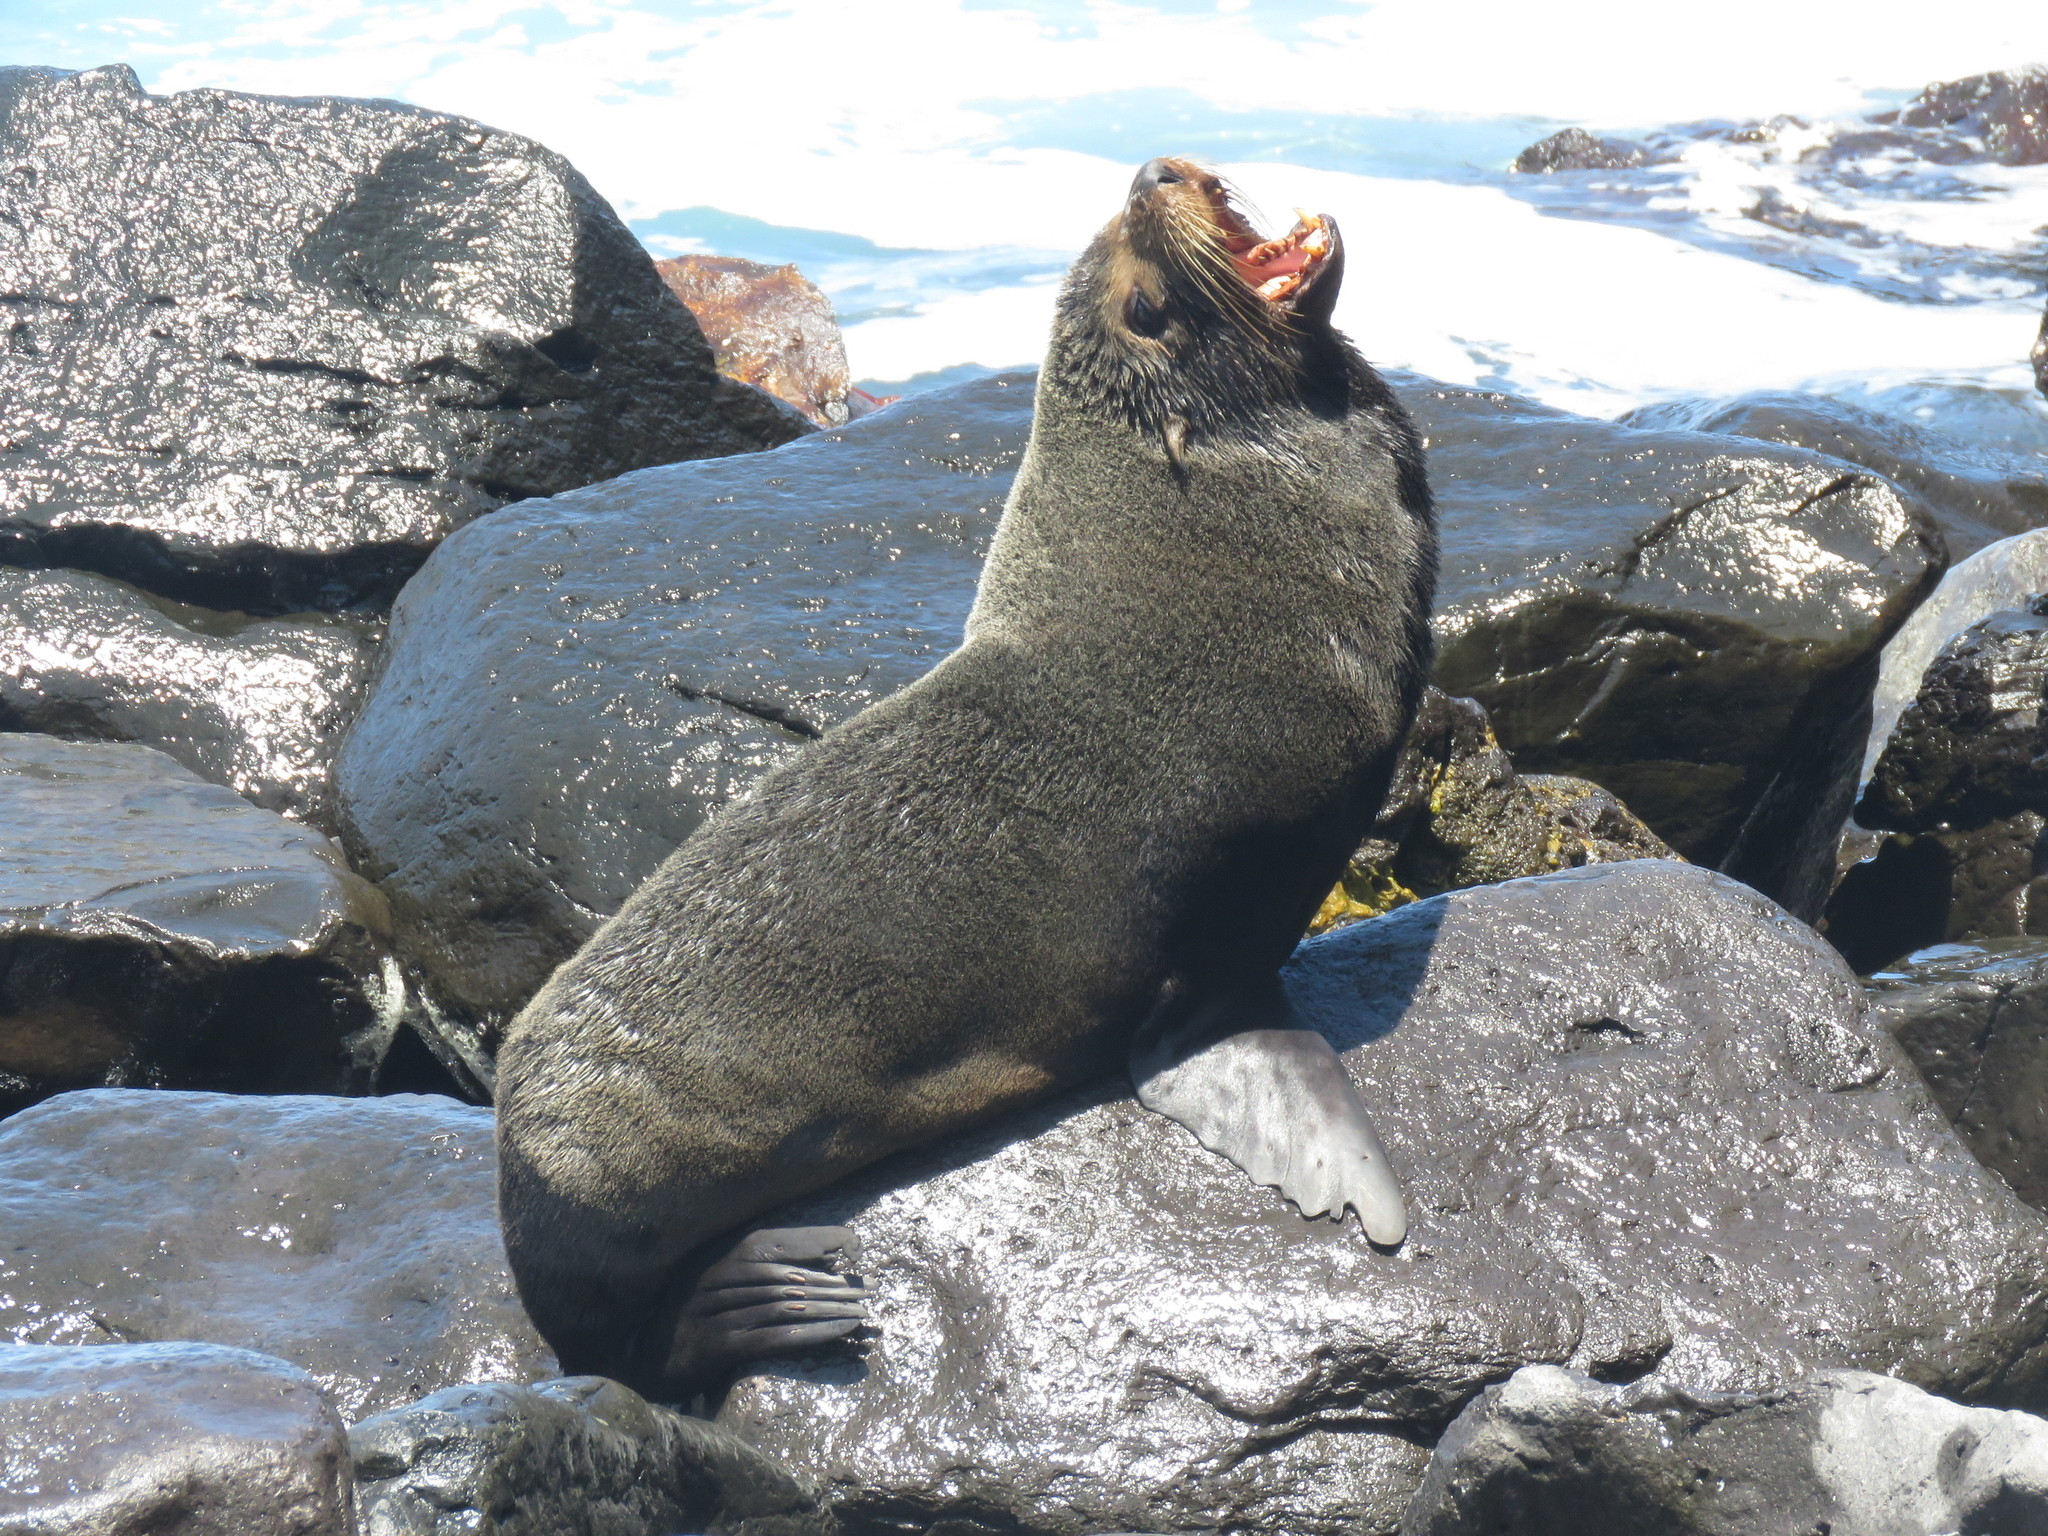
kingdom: Animalia
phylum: Chordata
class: Mammalia
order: Carnivora
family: Otariidae
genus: Arctocephalus
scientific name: Arctocephalus galapagoensis
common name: Galapagos fur seal
